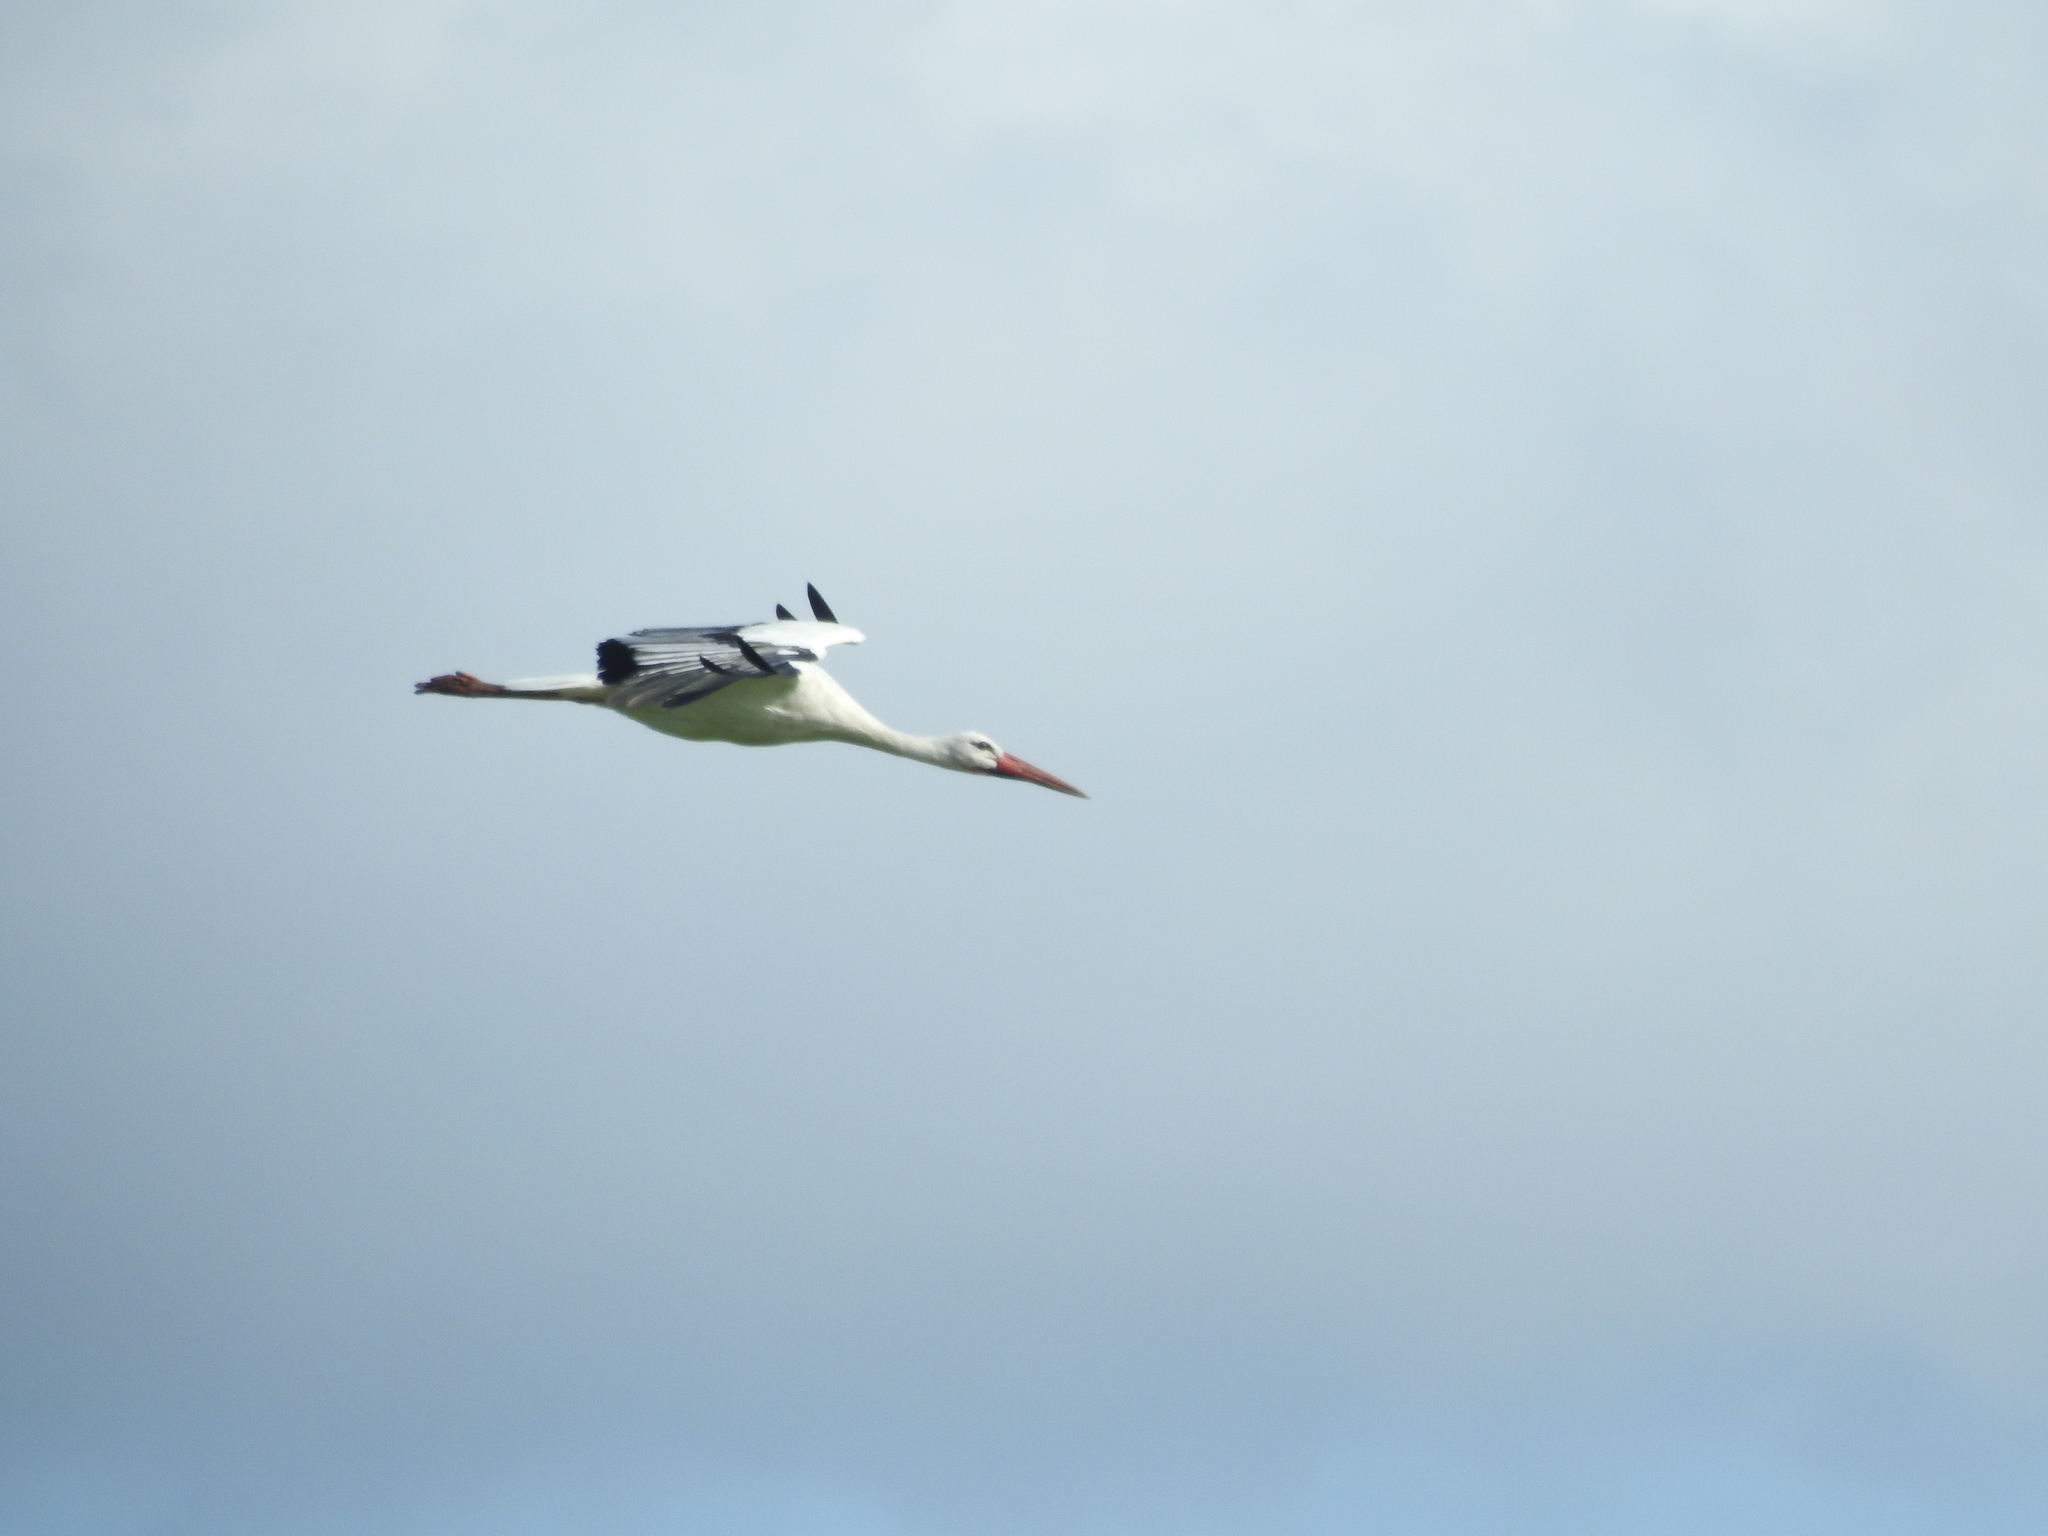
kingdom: Animalia
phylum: Chordata
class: Aves
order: Ciconiiformes
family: Ciconiidae
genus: Ciconia
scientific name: Ciconia ciconia
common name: White stork
